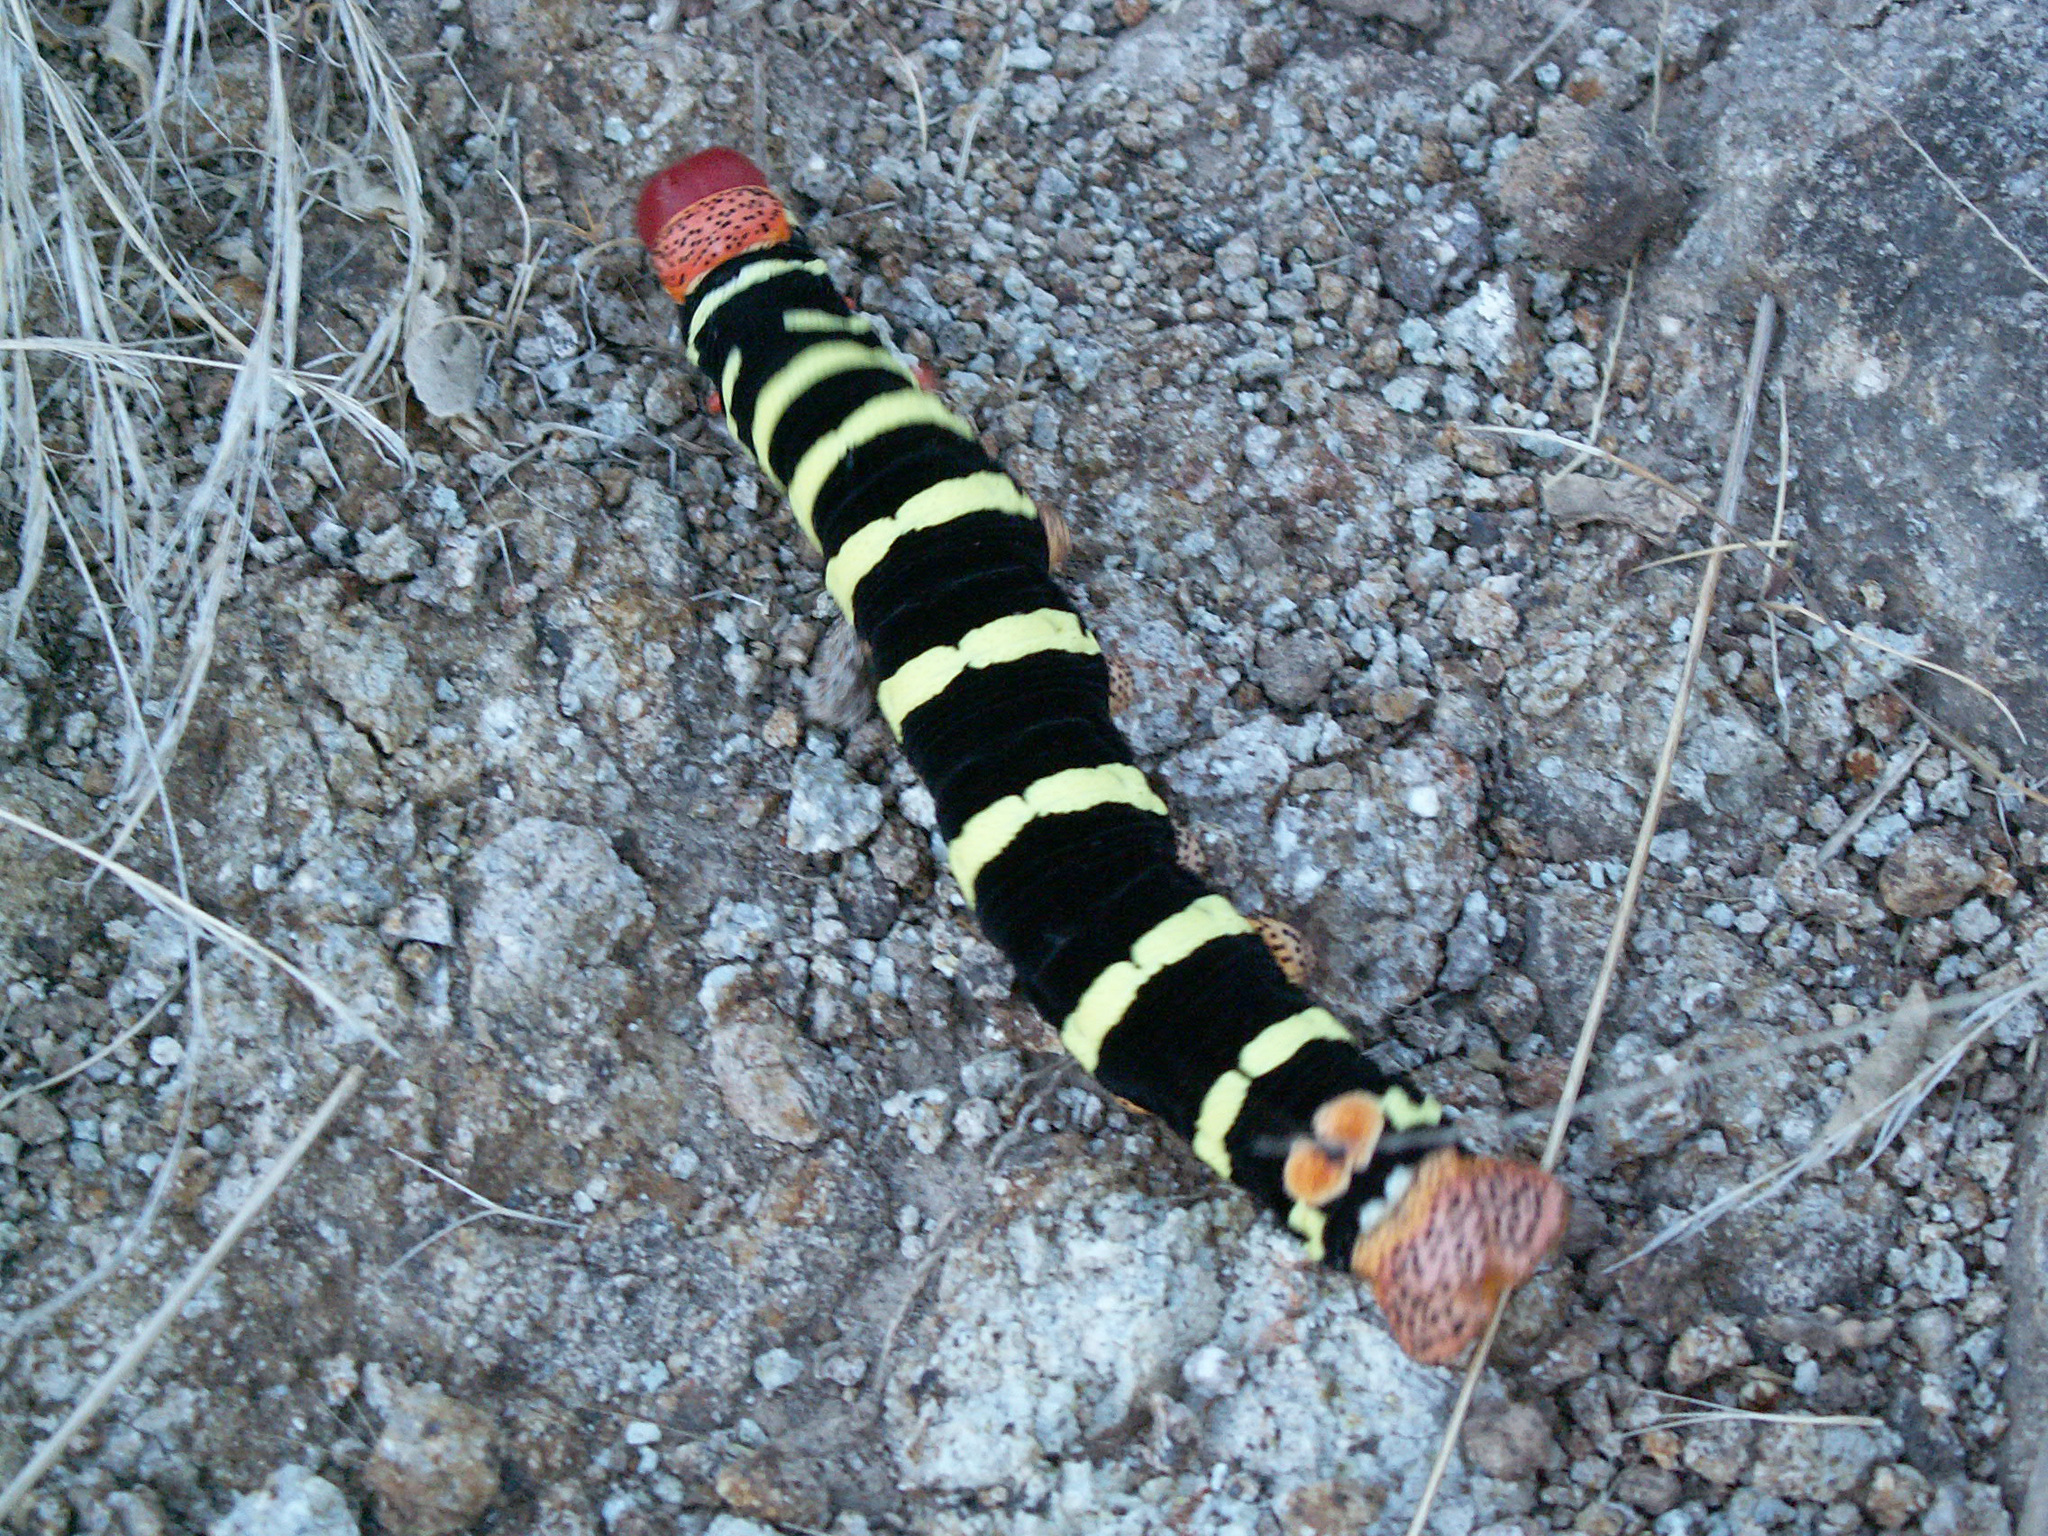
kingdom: Animalia
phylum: Arthropoda
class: Insecta
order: Lepidoptera
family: Sphingidae
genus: Pseudosphinx
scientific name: Pseudosphinx tetrio
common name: Tetrio sphinx
